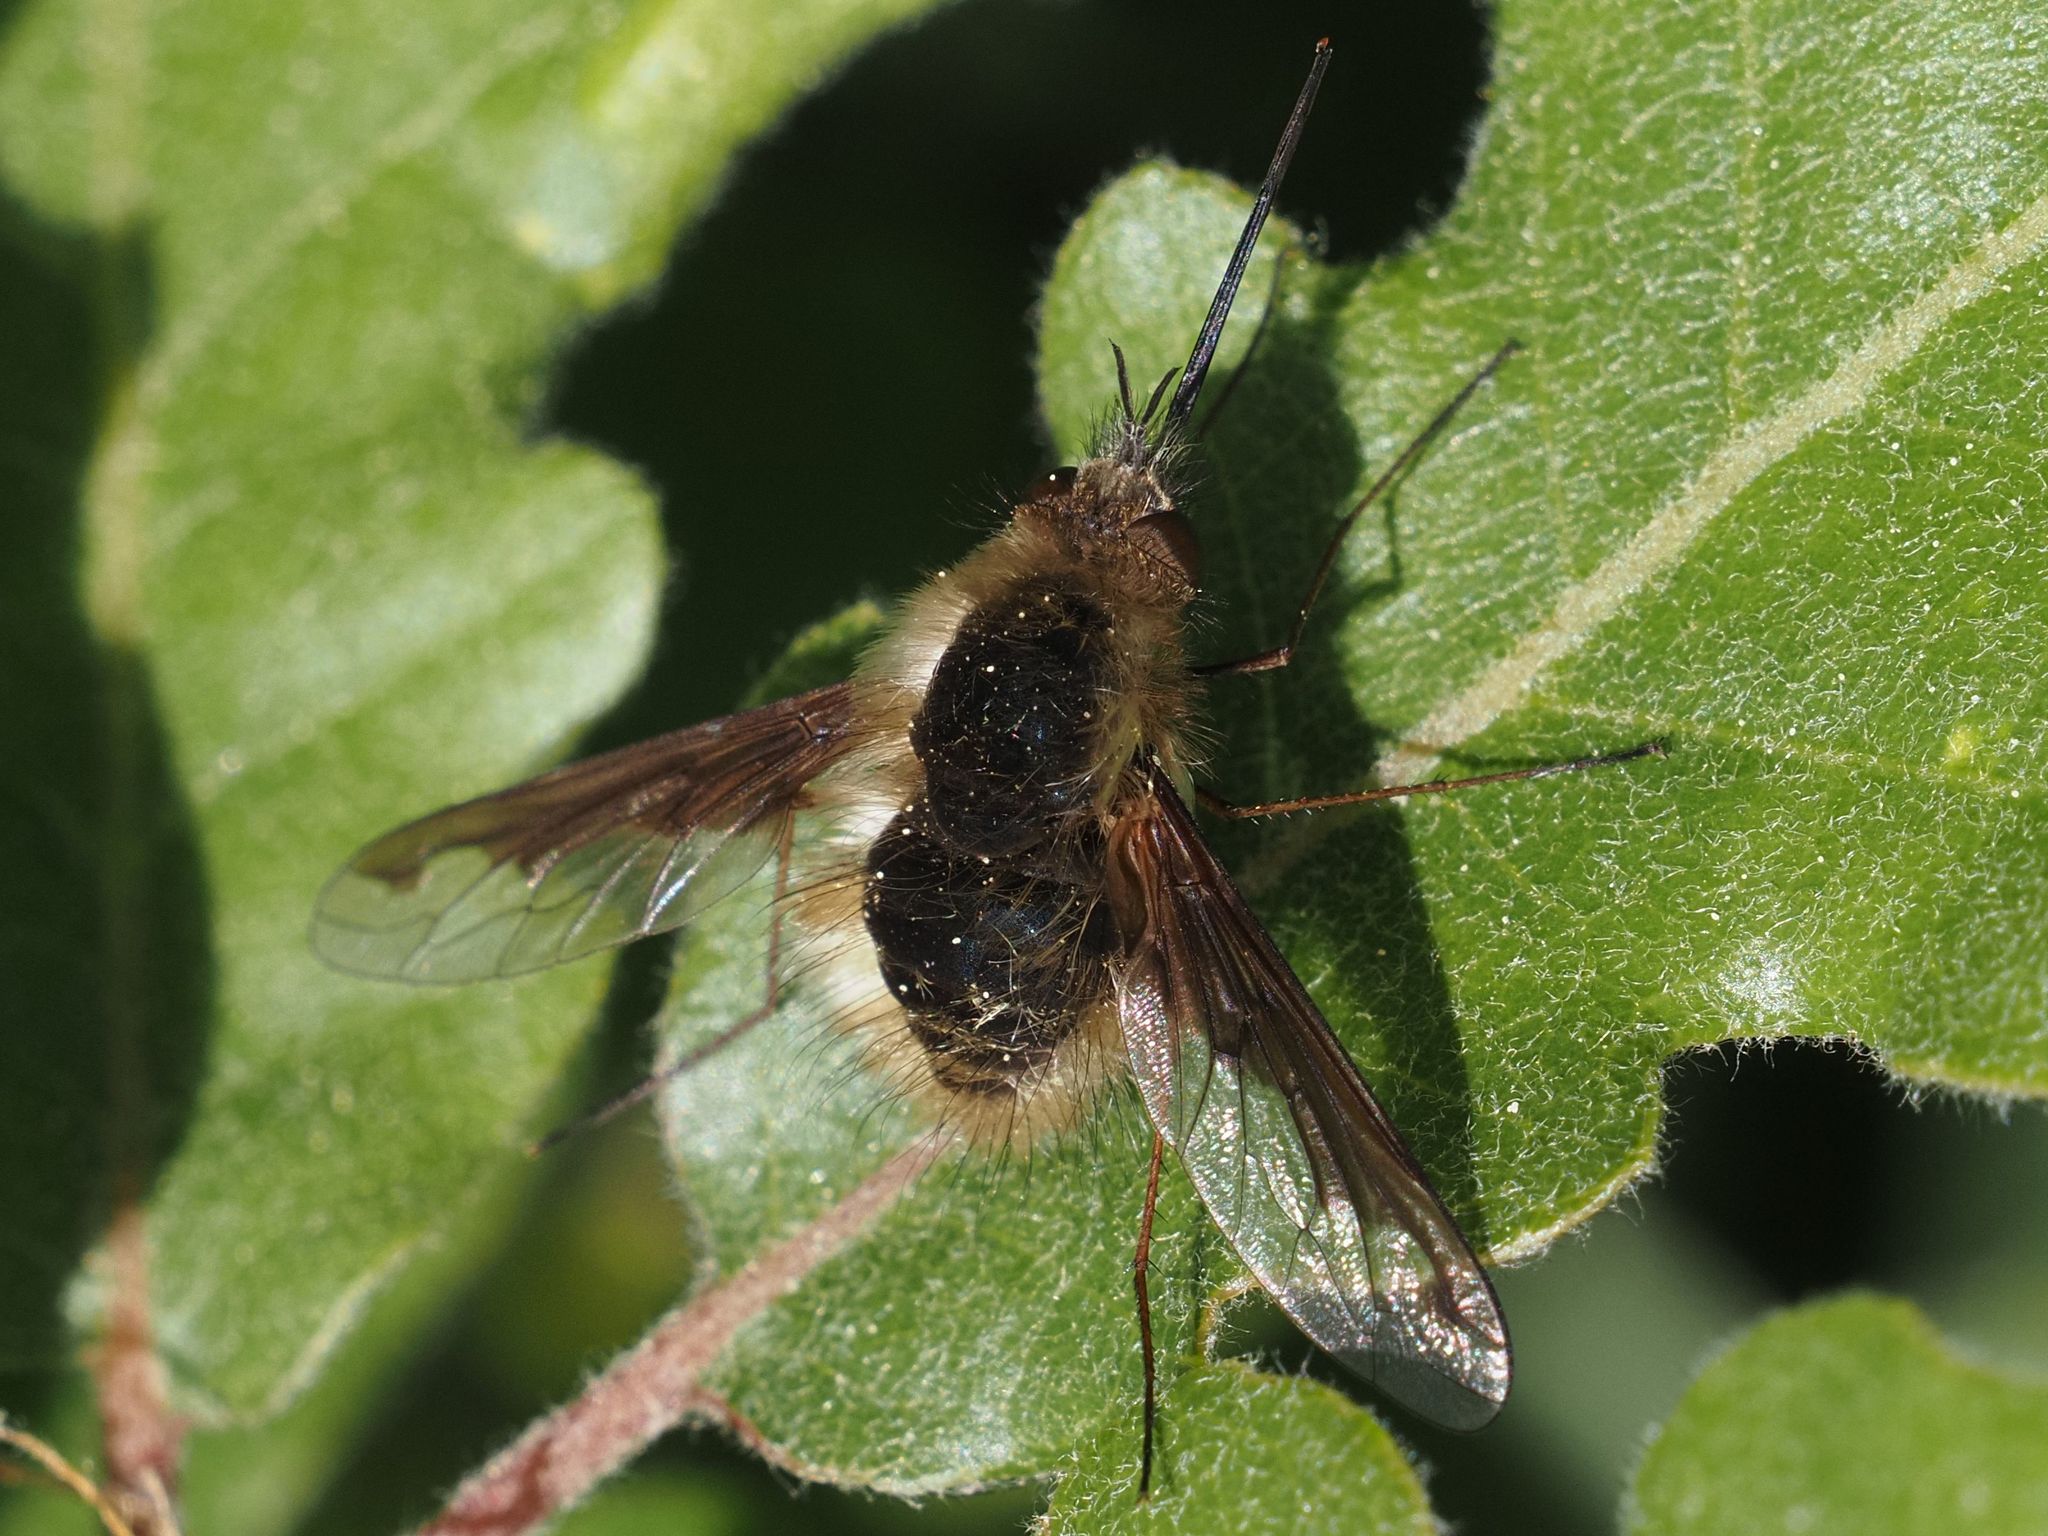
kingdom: Animalia
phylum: Arthropoda
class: Insecta
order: Diptera
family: Bombyliidae
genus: Bombylius
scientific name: Bombylius major
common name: Bee fly
